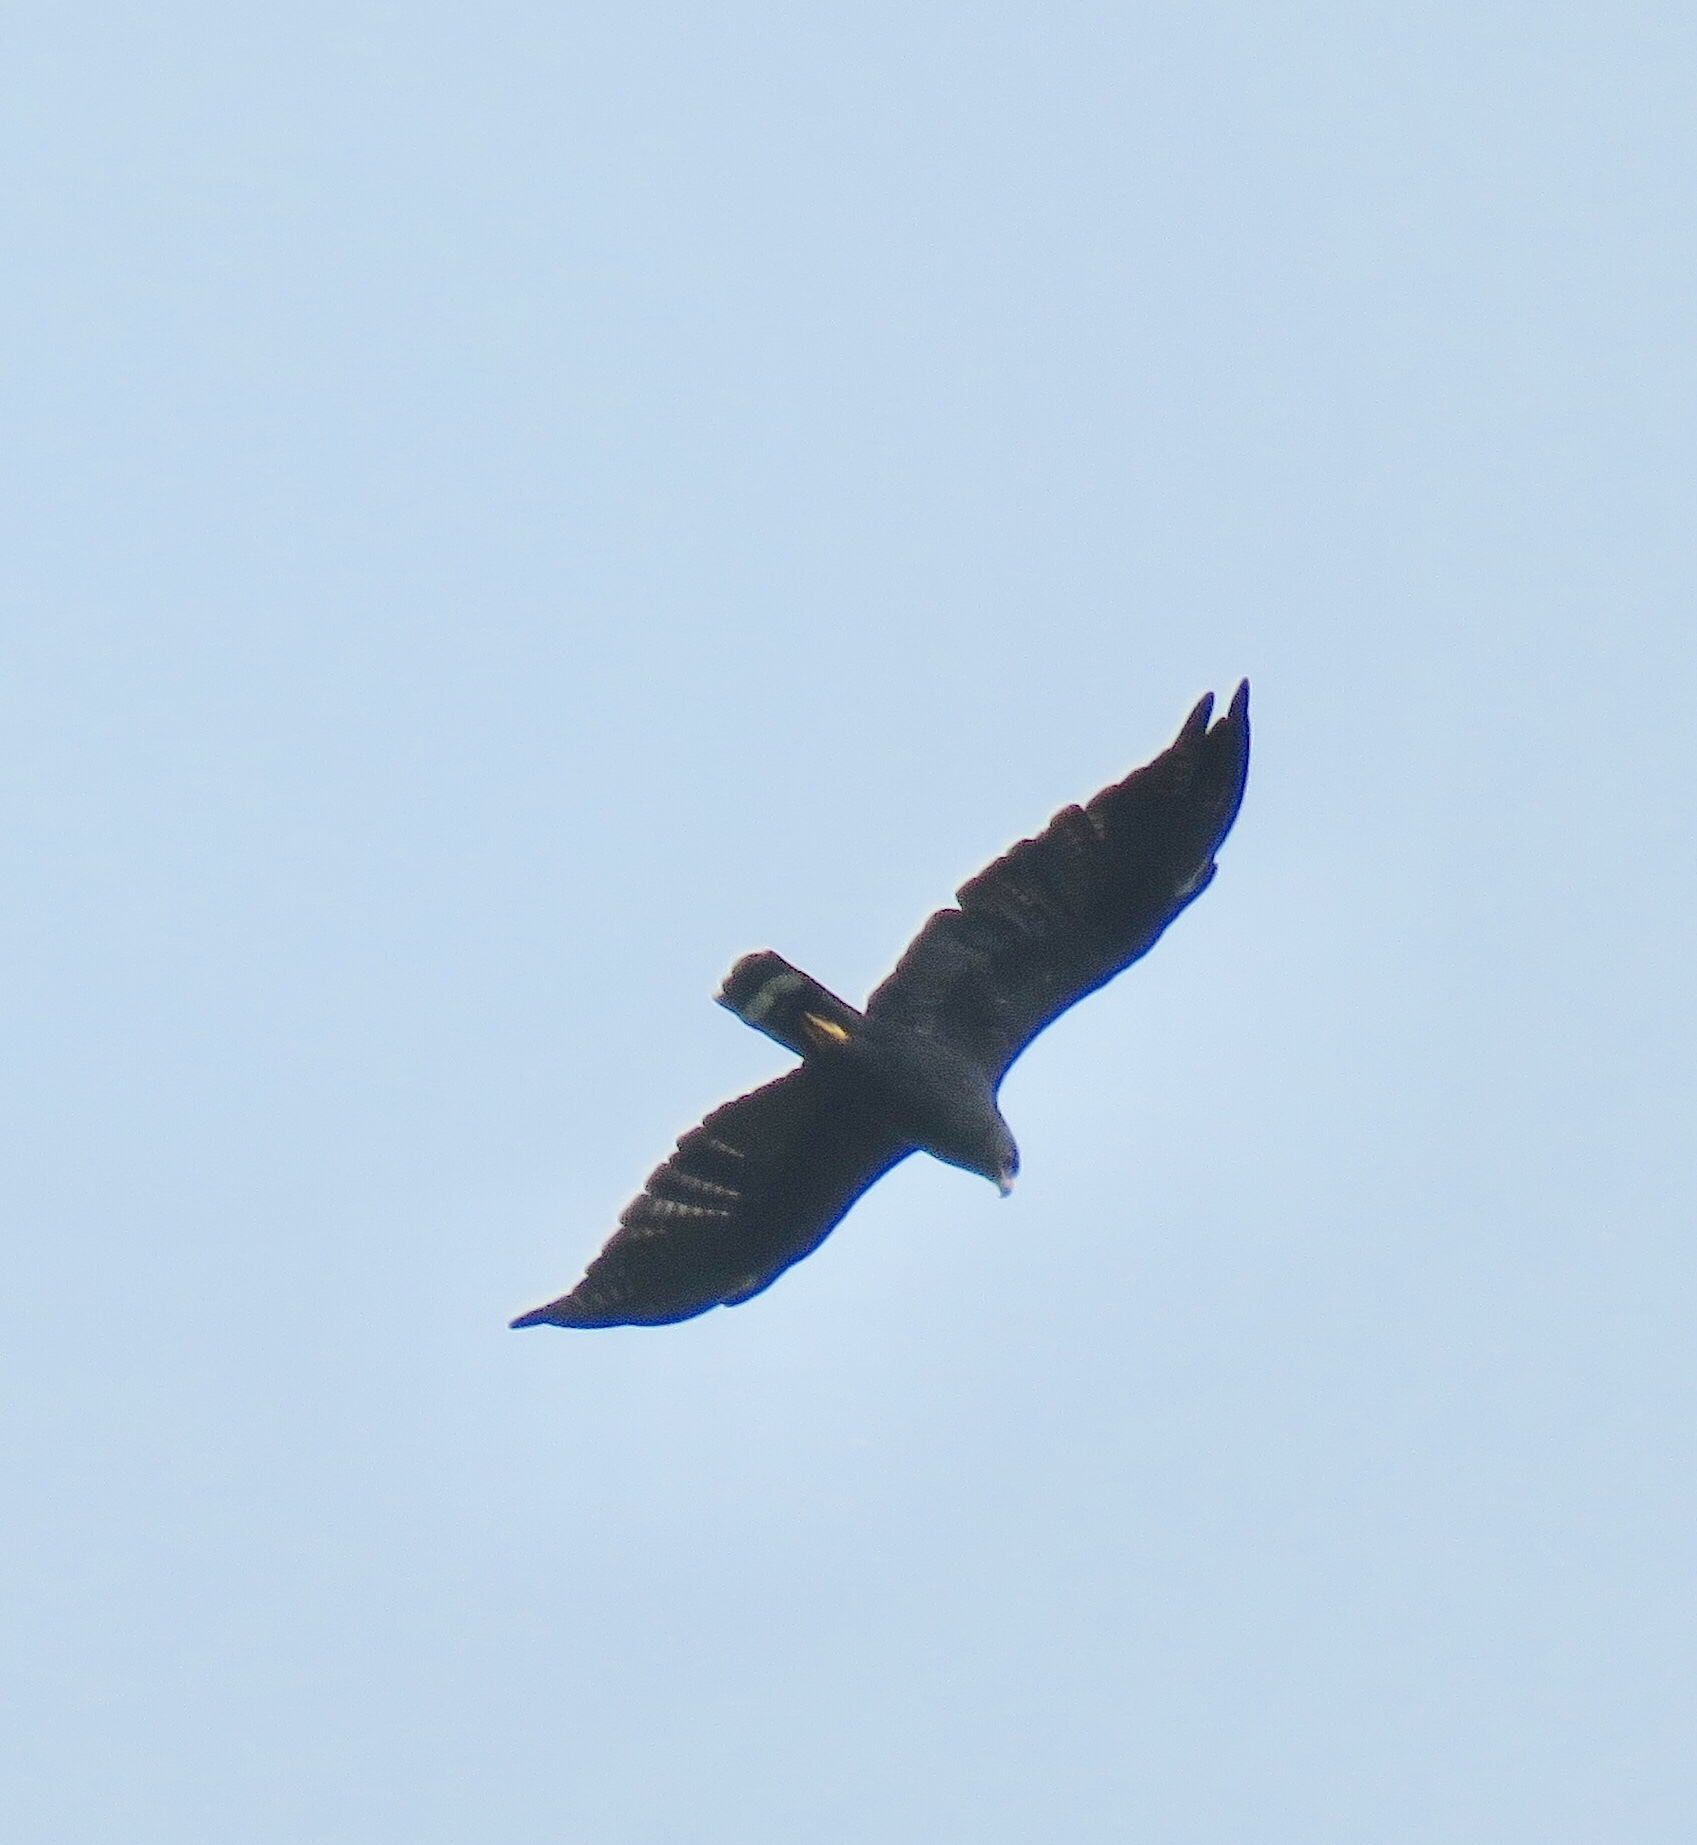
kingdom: Animalia
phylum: Chordata
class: Aves
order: Accipitriformes
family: Accipitridae
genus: Buteo
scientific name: Buteo albonotatus
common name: Zone-tailed hawk
